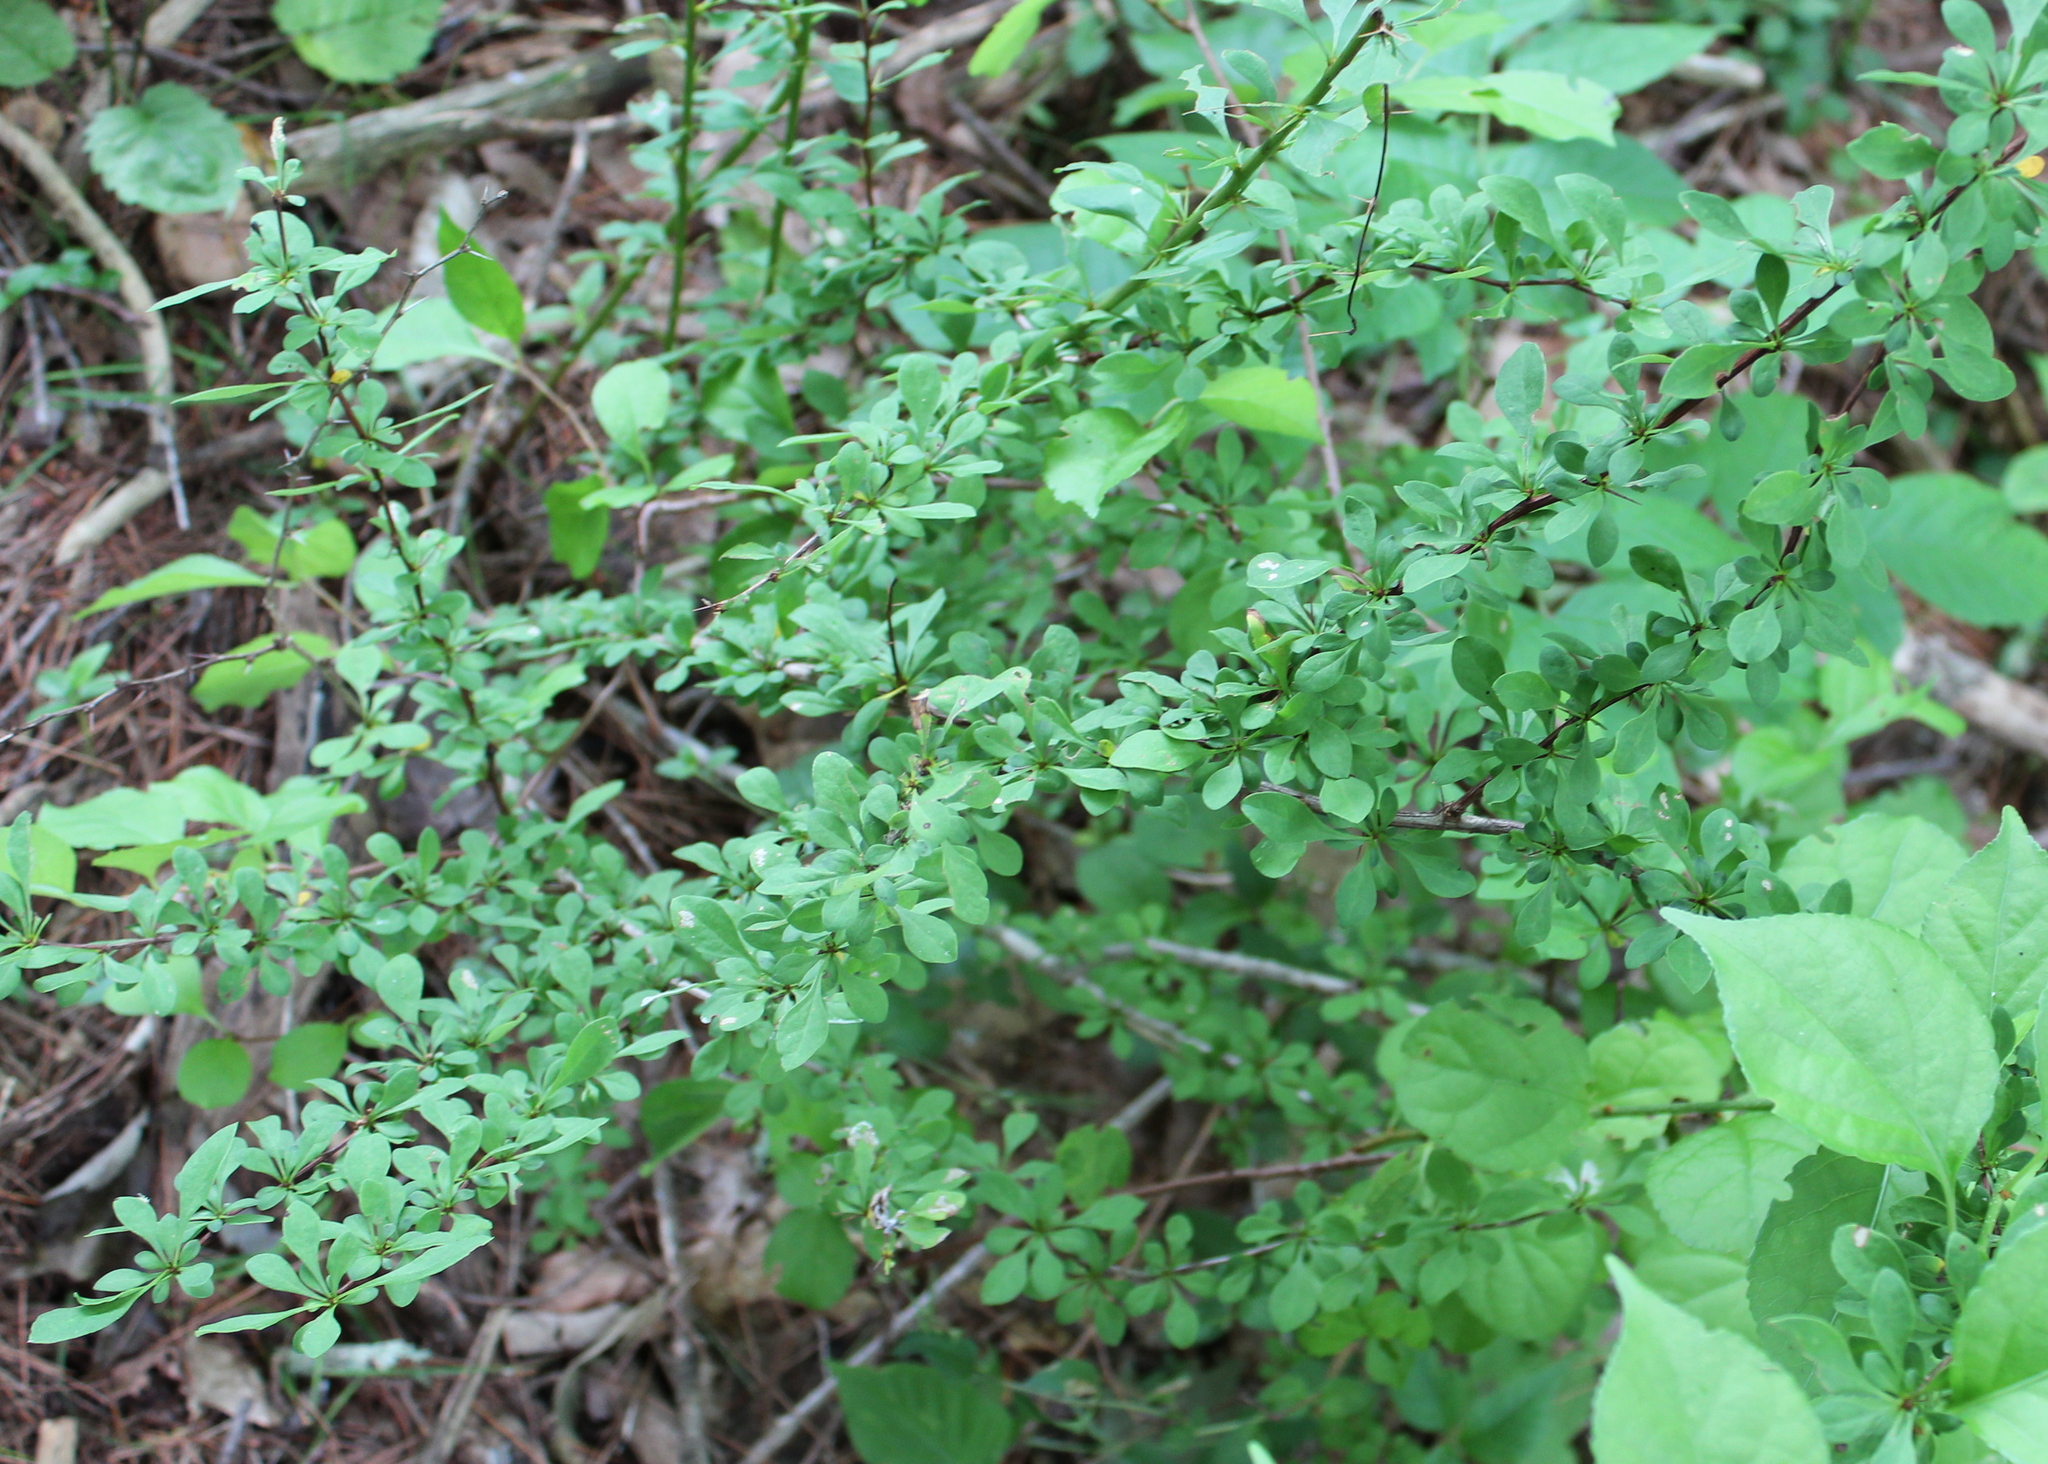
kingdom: Plantae
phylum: Tracheophyta
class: Magnoliopsida
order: Ranunculales
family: Berberidaceae
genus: Berberis
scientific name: Berberis thunbergii
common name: Japanese barberry
